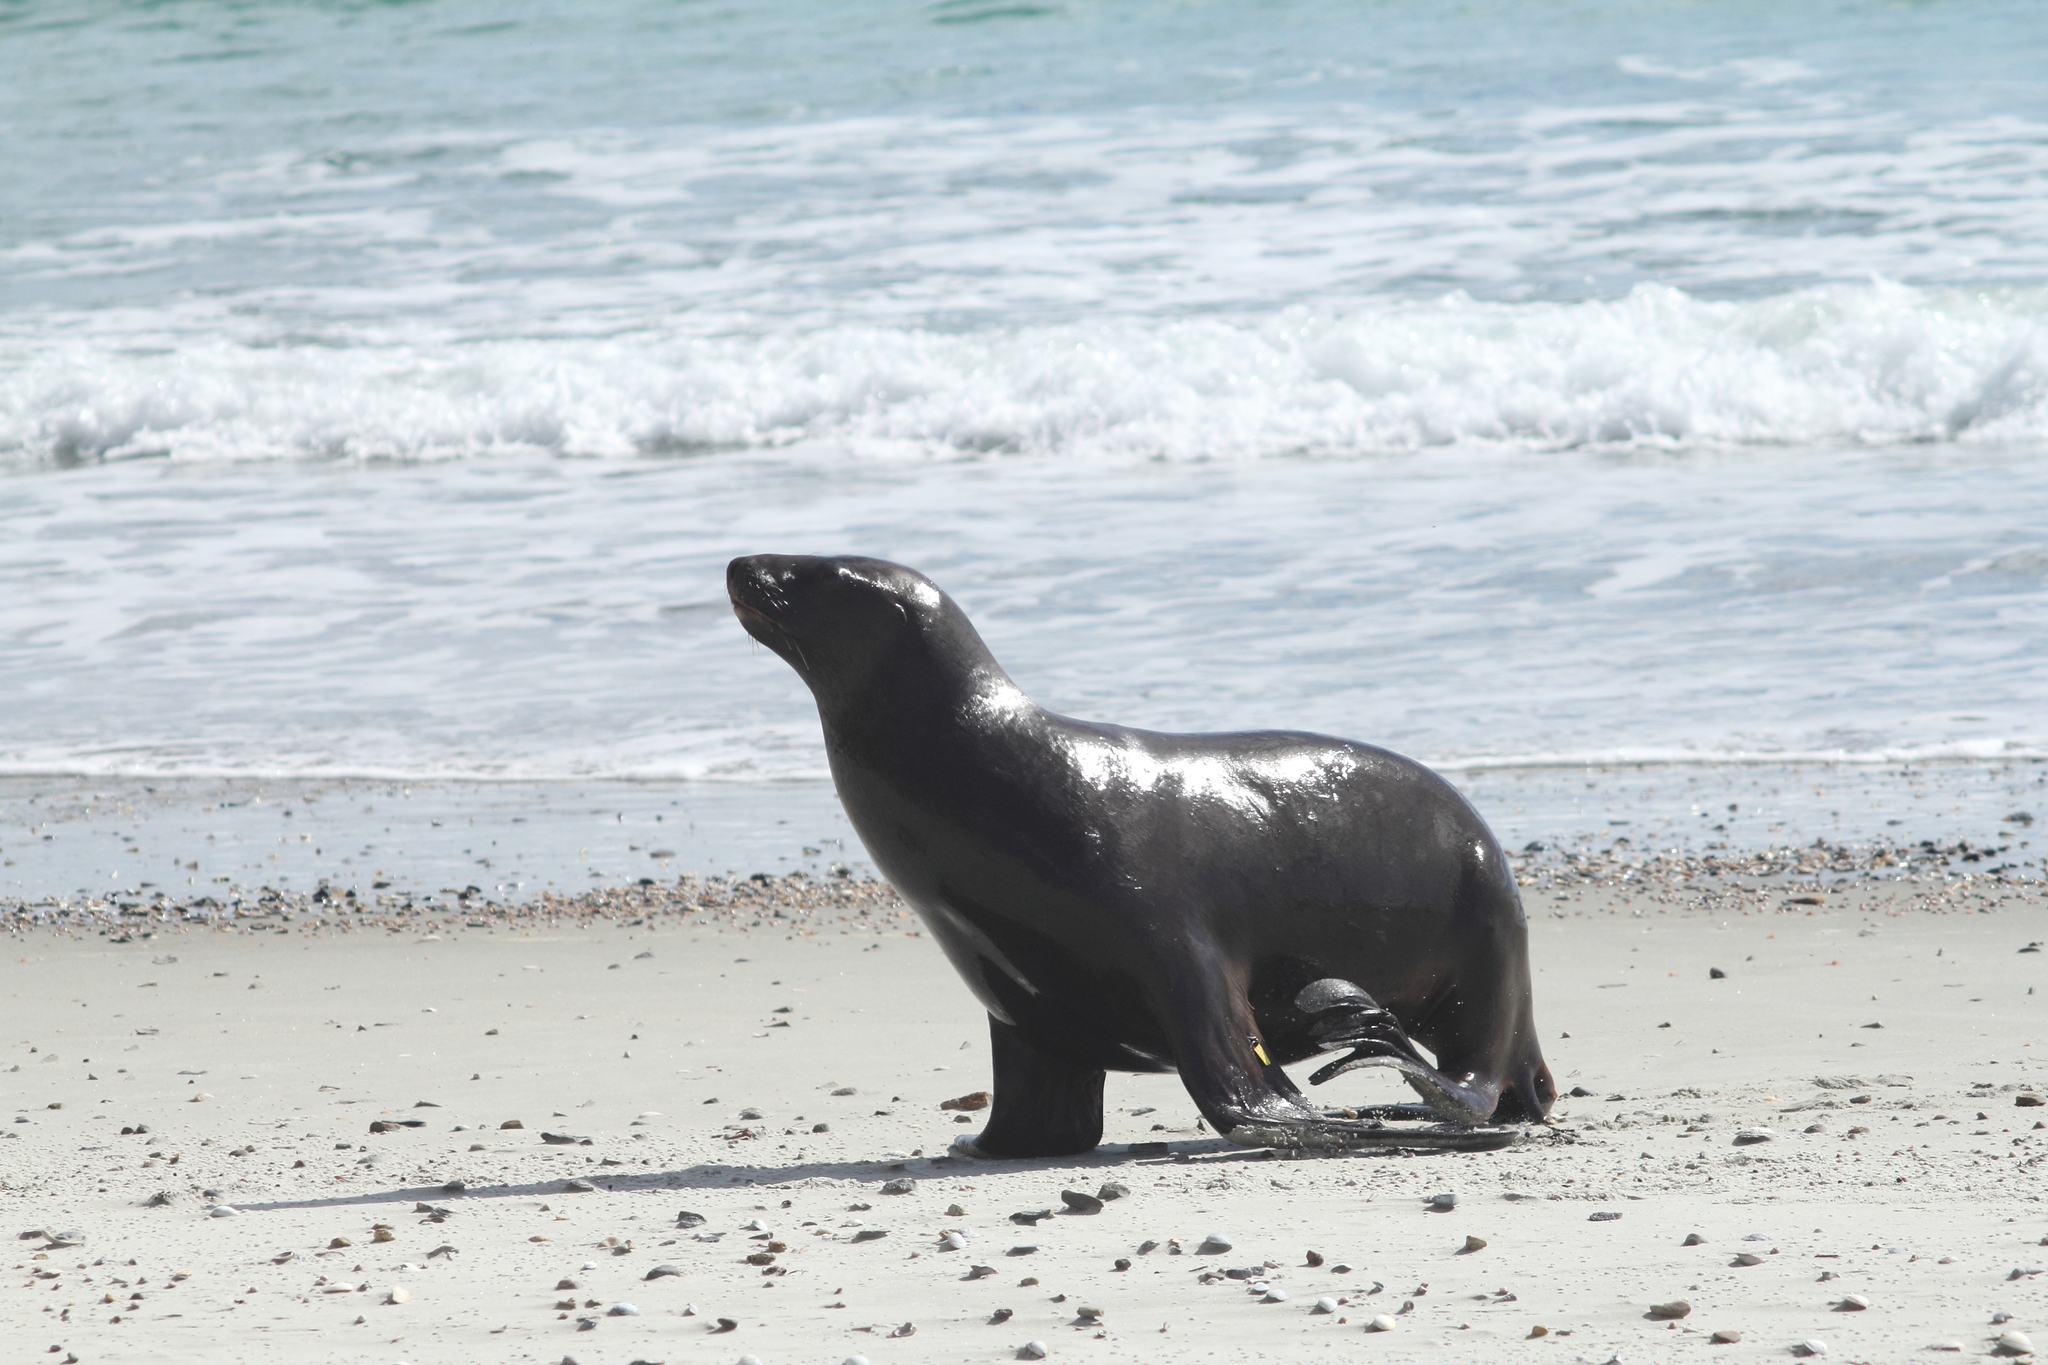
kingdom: Animalia
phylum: Chordata
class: Mammalia
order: Carnivora
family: Otariidae
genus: Phocarctos
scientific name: Phocarctos hookeri
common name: New zealand sea lion
